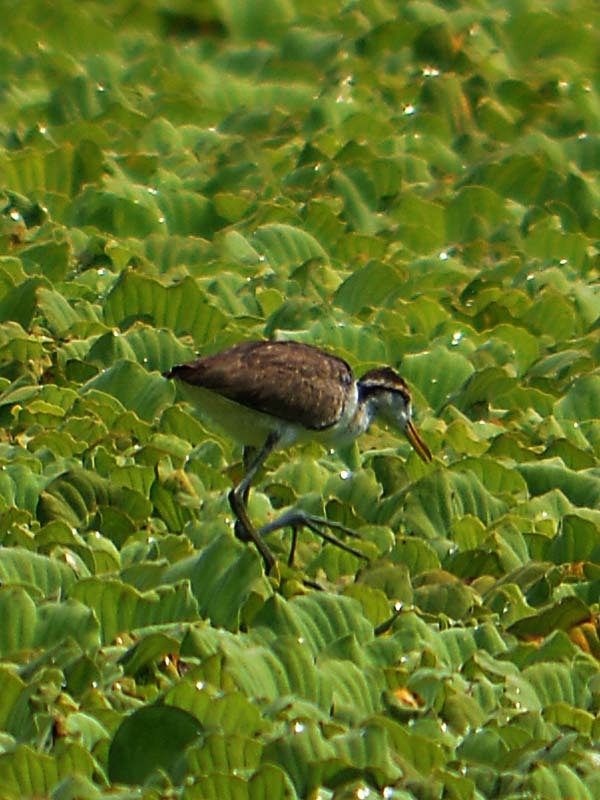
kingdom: Animalia
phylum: Chordata
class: Aves
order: Charadriiformes
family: Jacanidae
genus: Jacana
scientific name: Jacana spinosa
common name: Northern jacana
